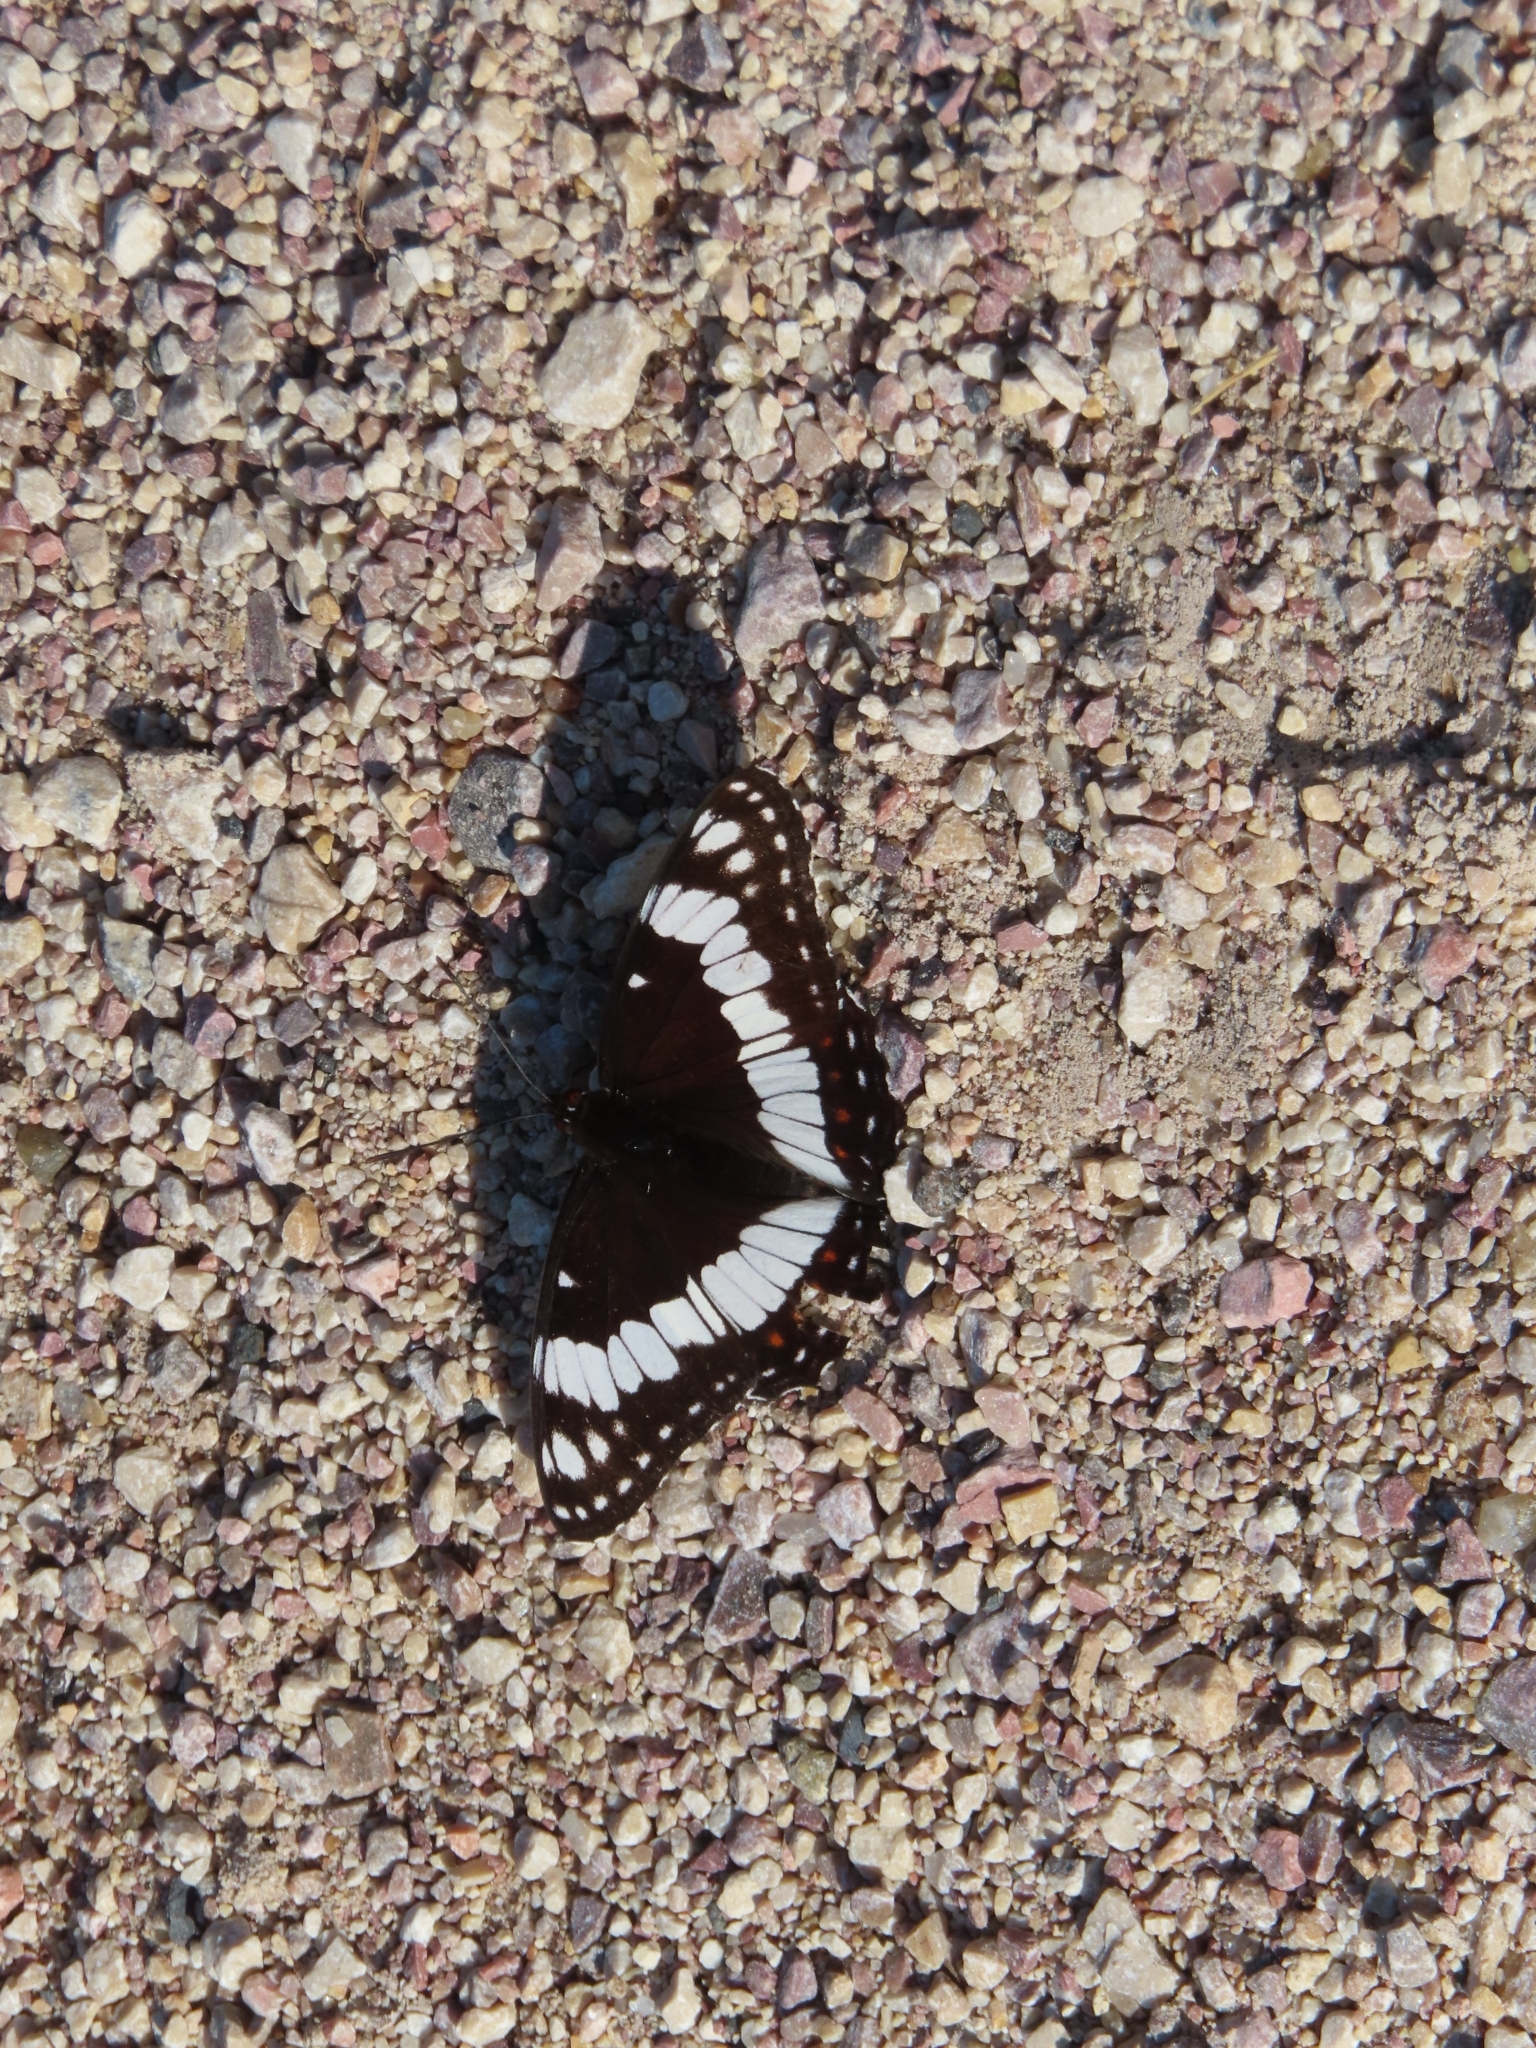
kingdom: Animalia
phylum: Arthropoda
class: Insecta
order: Lepidoptera
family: Nymphalidae
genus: Limenitis
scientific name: Limenitis weidemeyerii
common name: Weidemeyer's admiral
